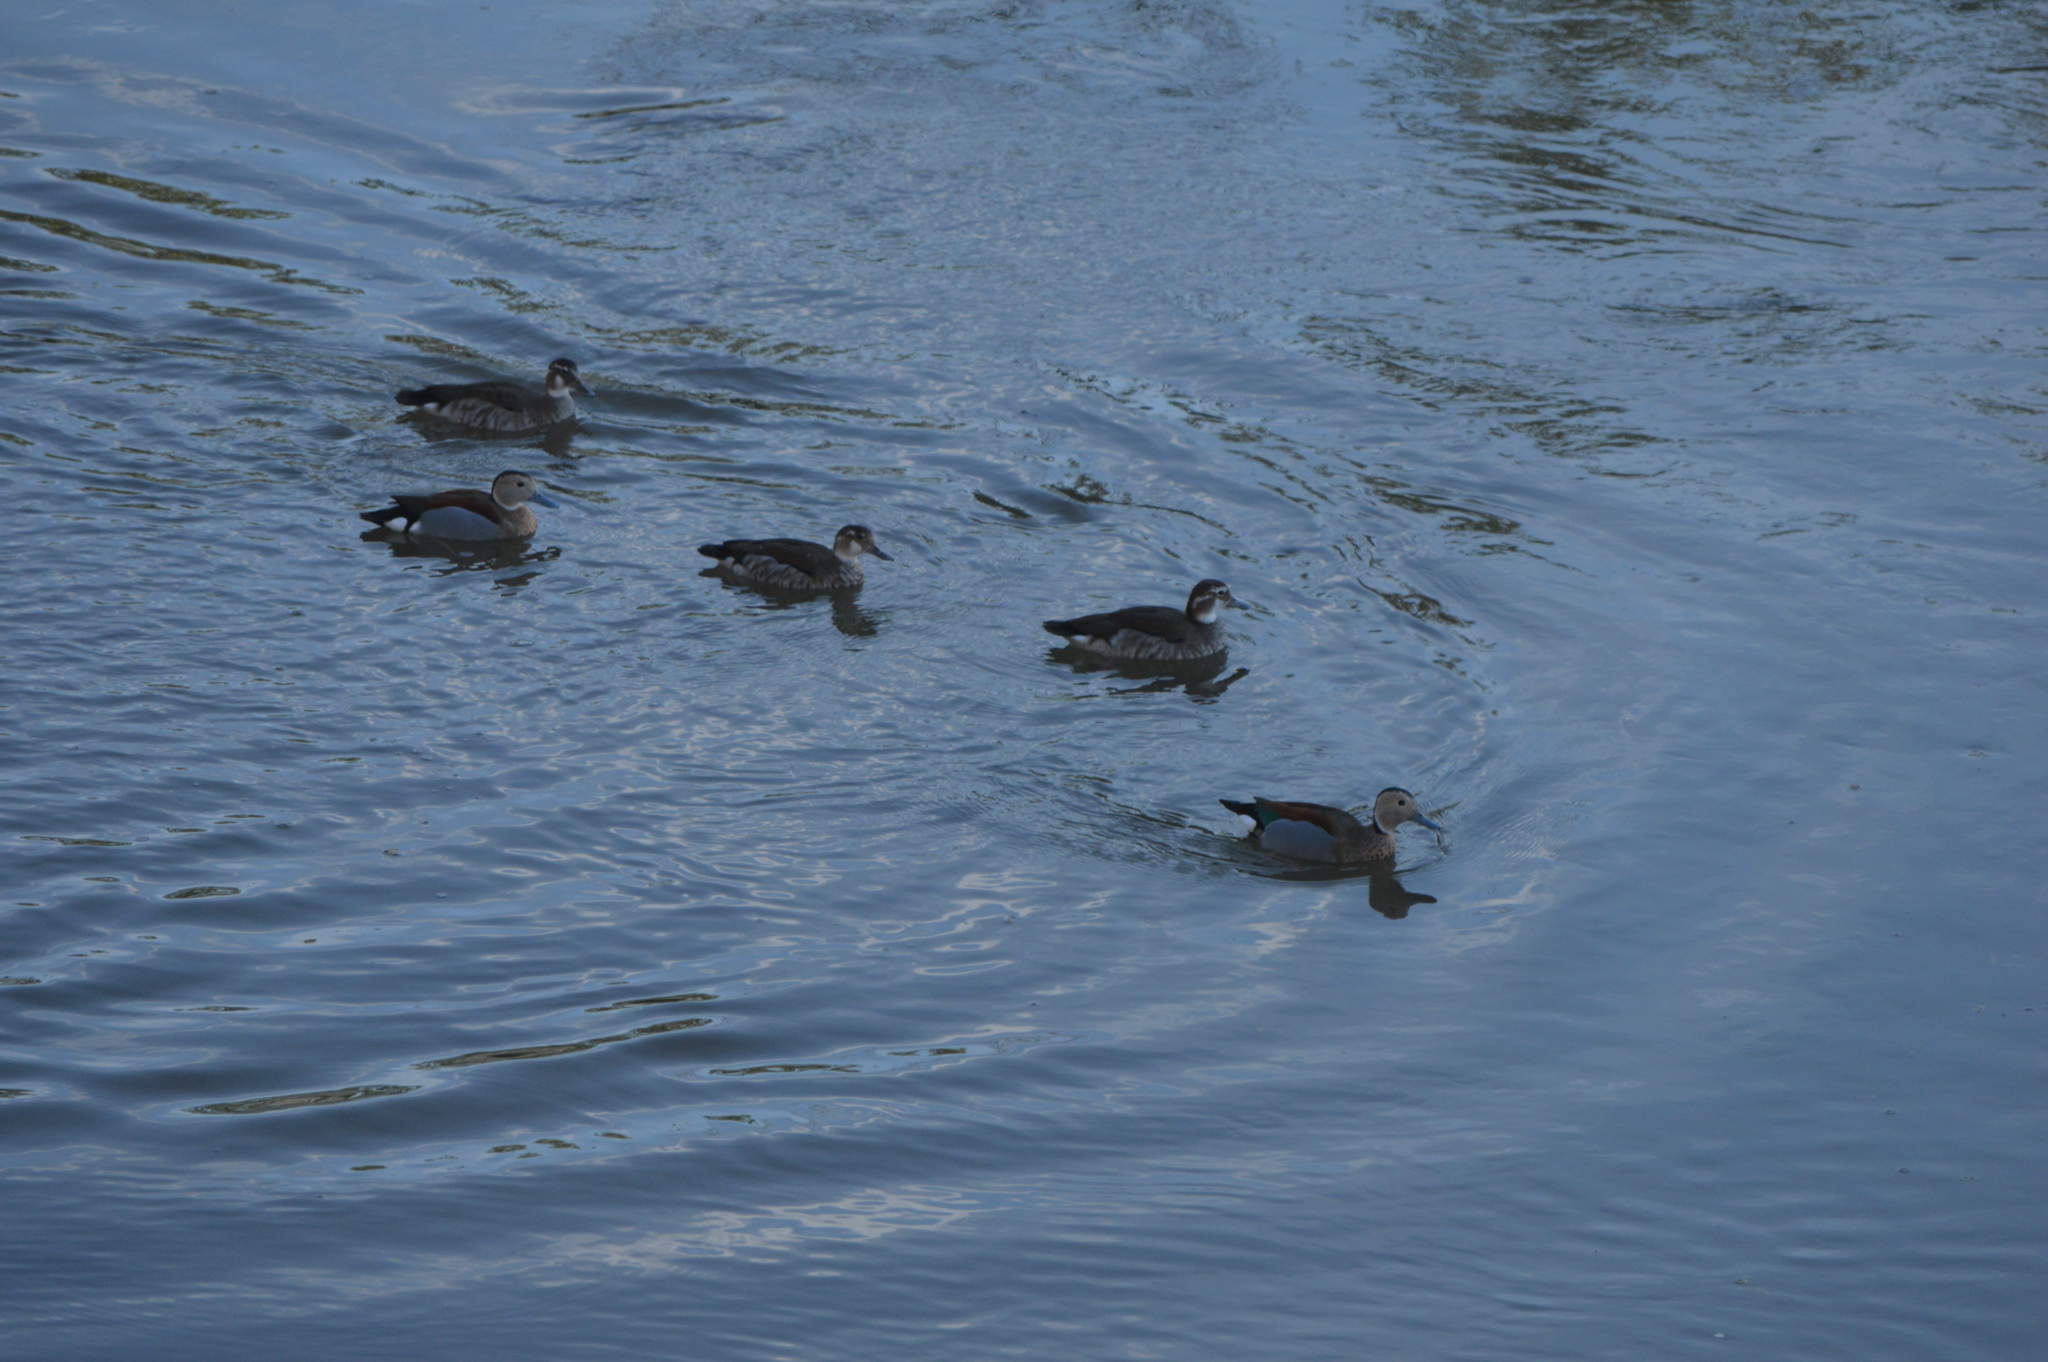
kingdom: Animalia
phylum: Chordata
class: Aves
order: Anseriformes
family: Anatidae
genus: Callonetta
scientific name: Callonetta leucophrys
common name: Ringed teal
